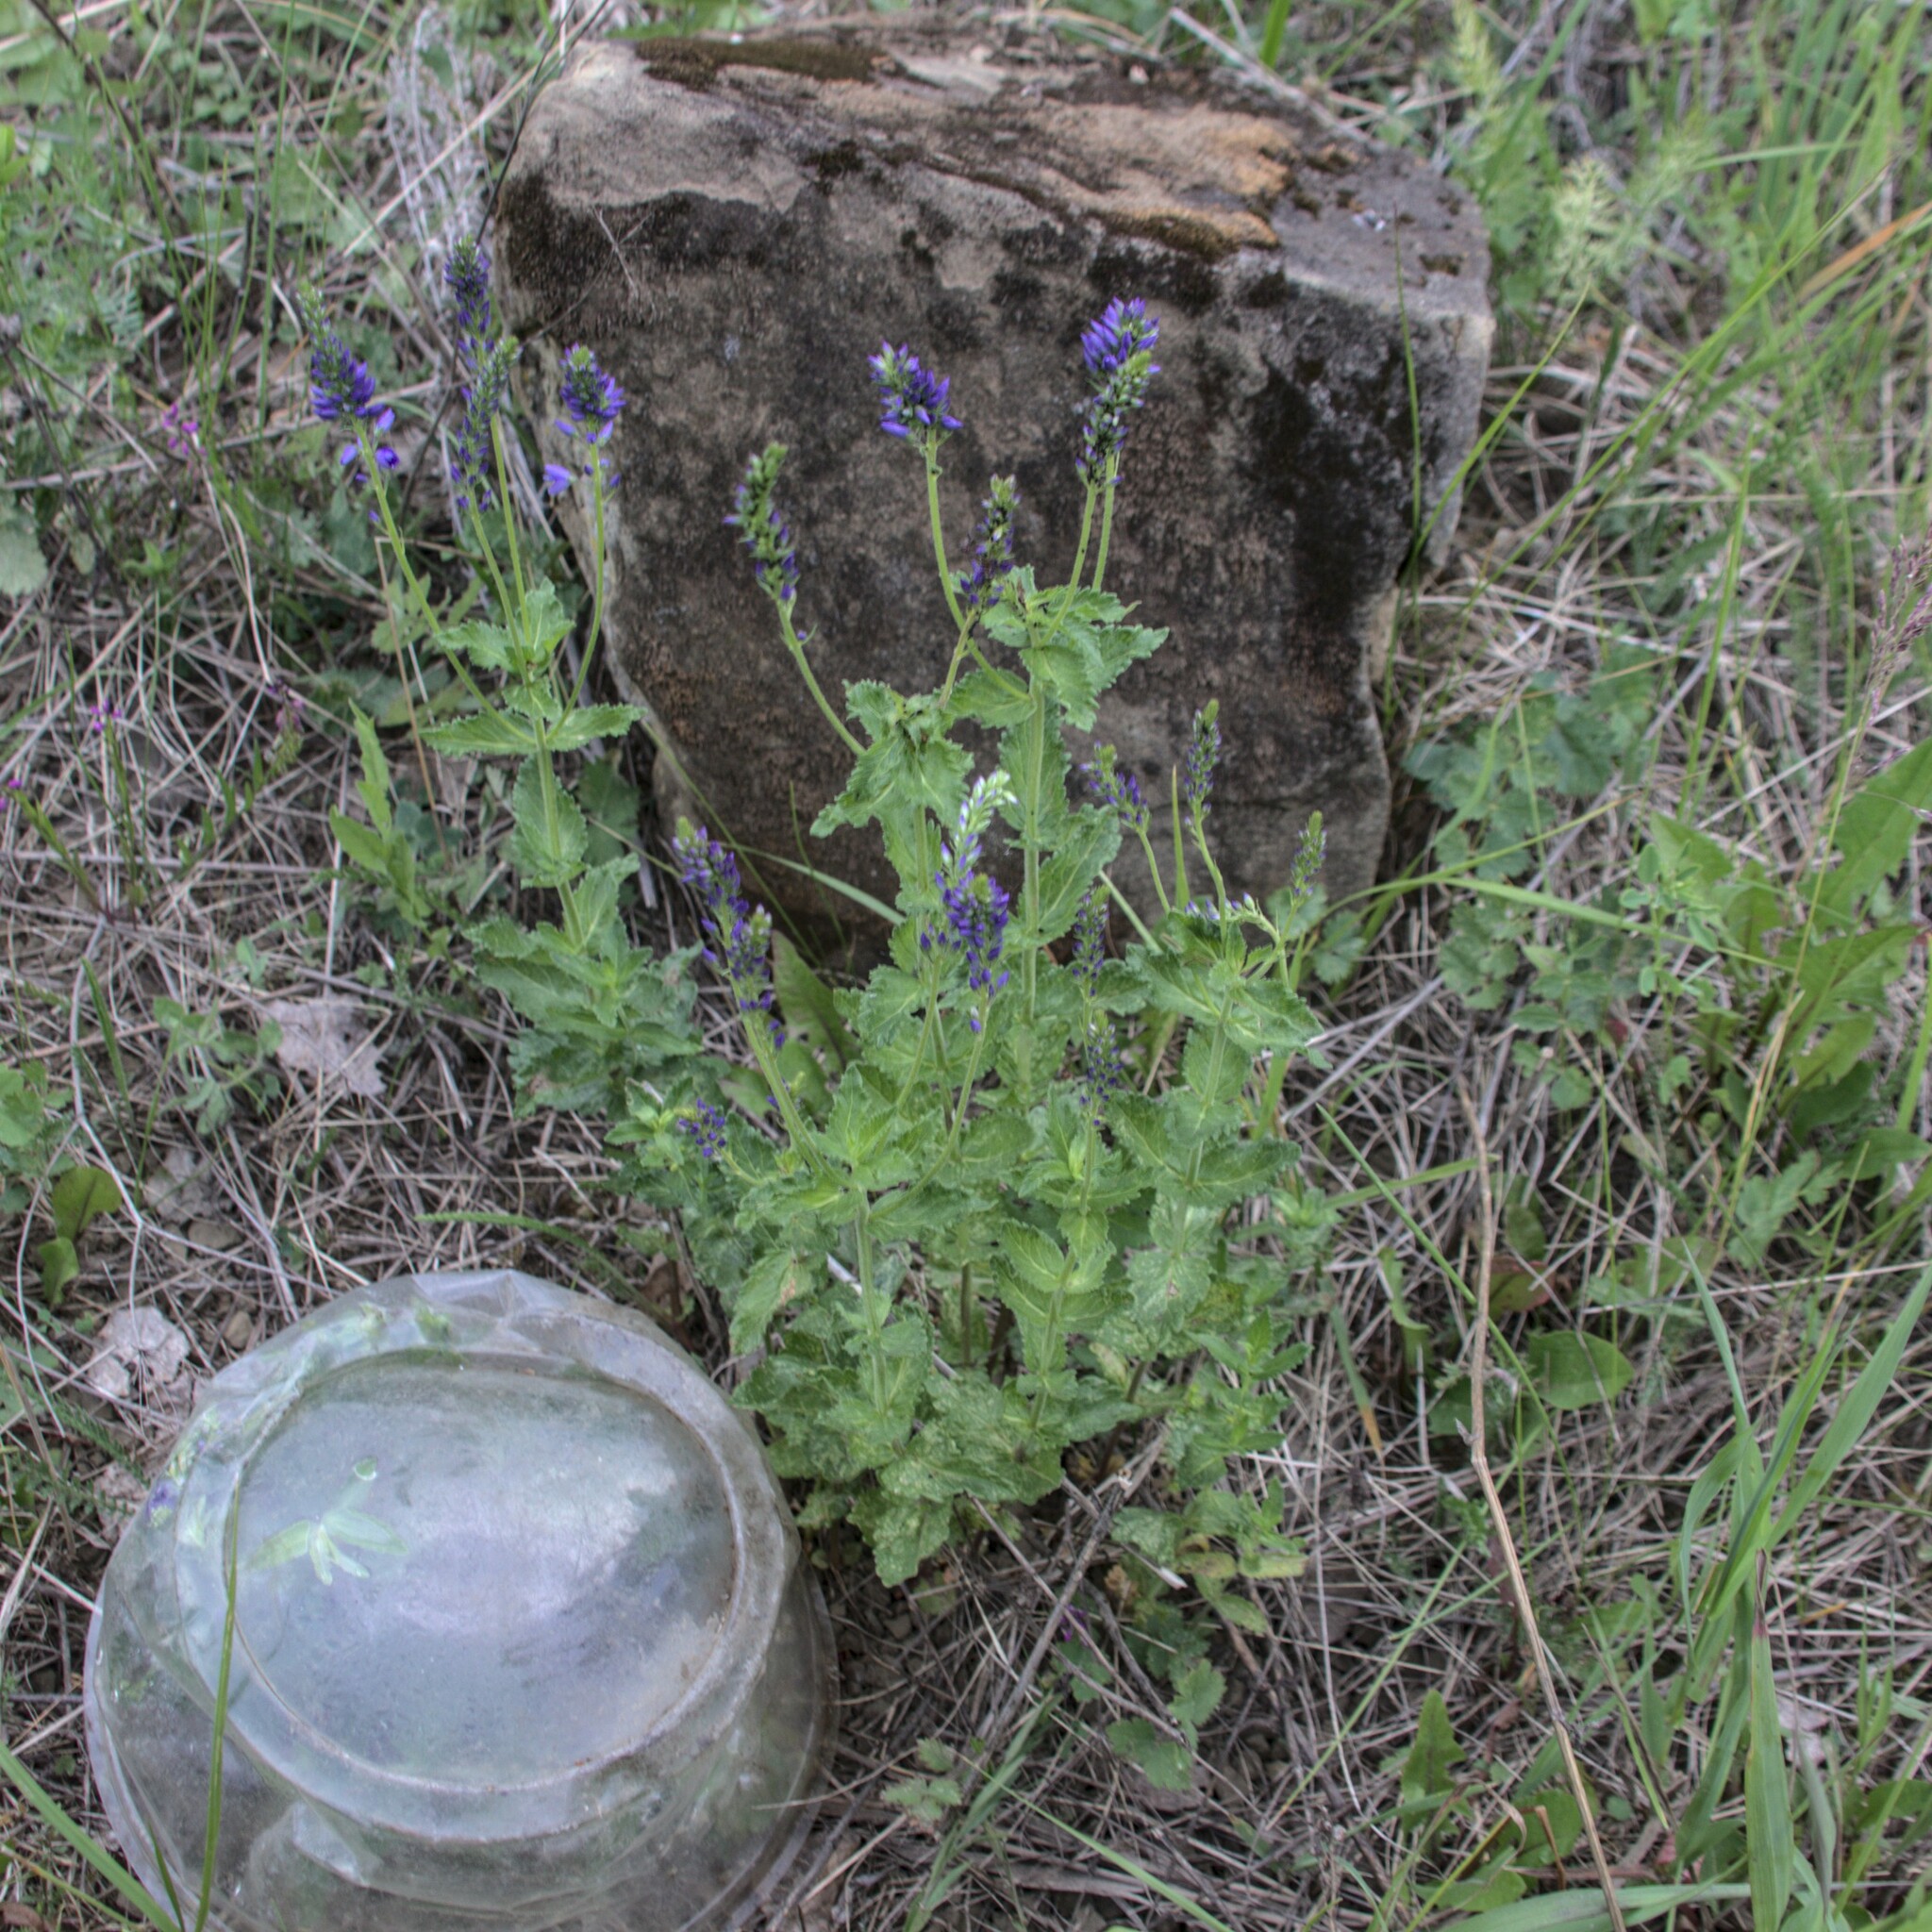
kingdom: Plantae
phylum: Tracheophyta
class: Magnoliopsida
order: Lamiales
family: Plantaginaceae
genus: Veronica
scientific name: Veronica teucrium
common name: Large speedwell
